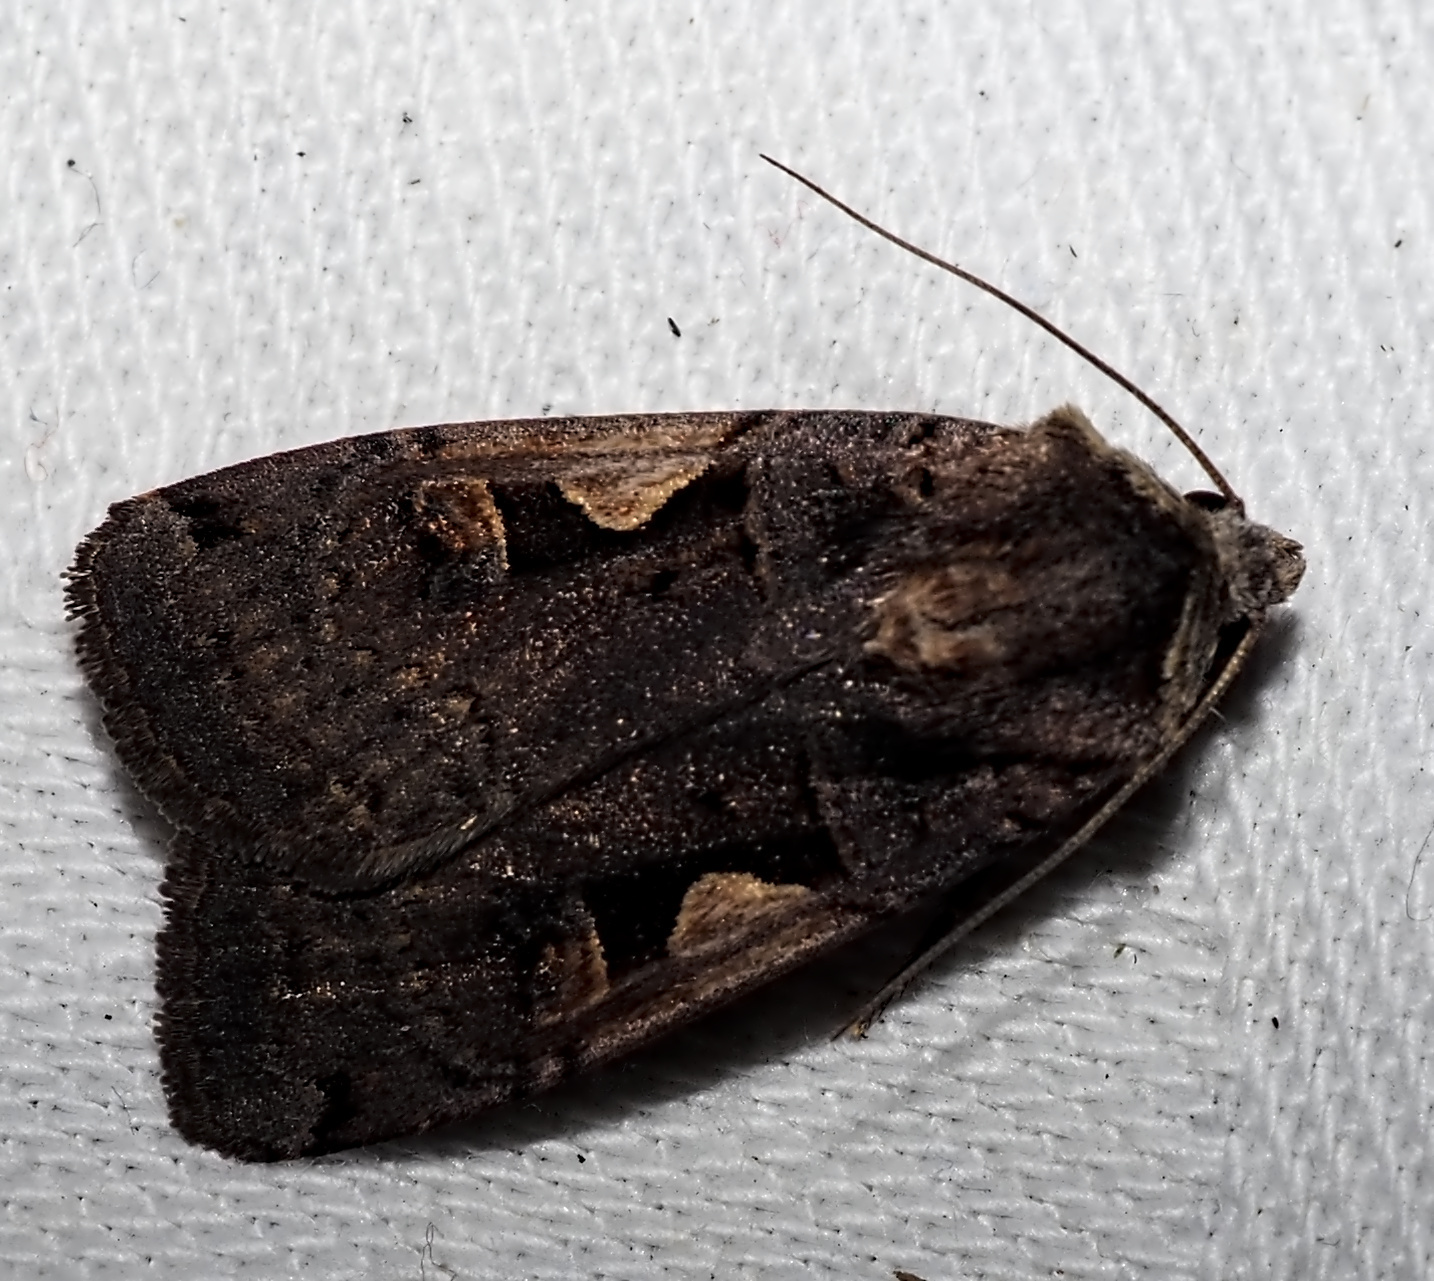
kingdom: Animalia
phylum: Arthropoda
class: Insecta
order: Lepidoptera
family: Noctuidae
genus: Xestia
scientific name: Xestia c-nigrum
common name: Setaceous hebrew character
